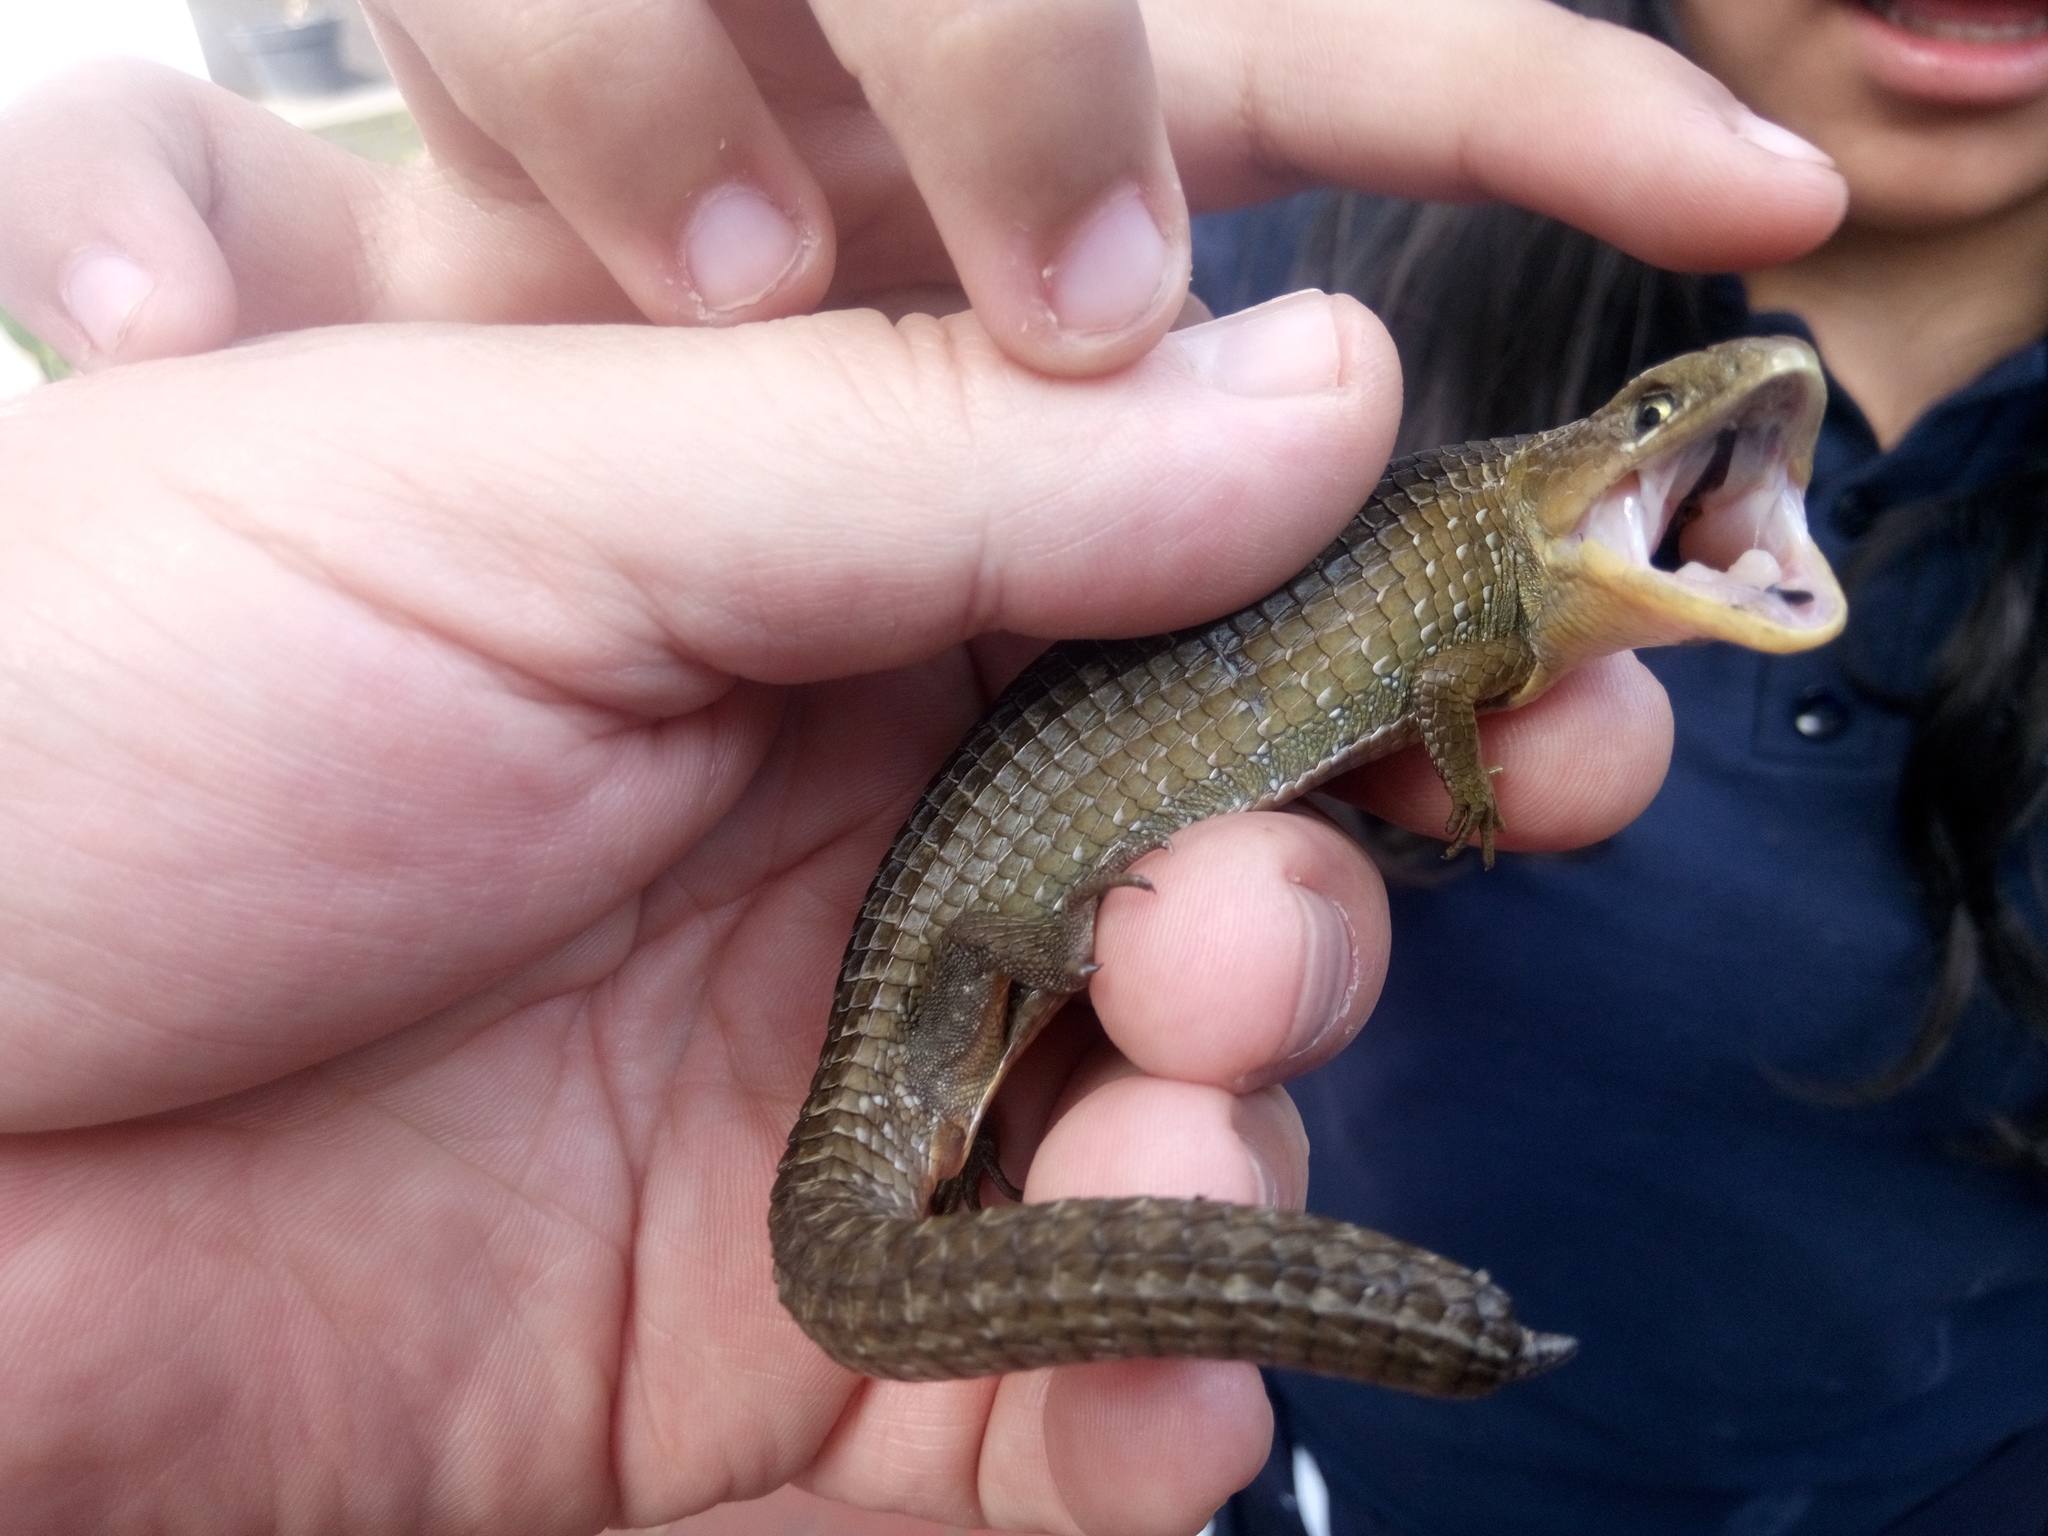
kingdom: Animalia
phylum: Chordata
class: Squamata
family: Anguidae
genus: Barisia
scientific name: Barisia imbricata
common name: Imbricate alligator lizard
